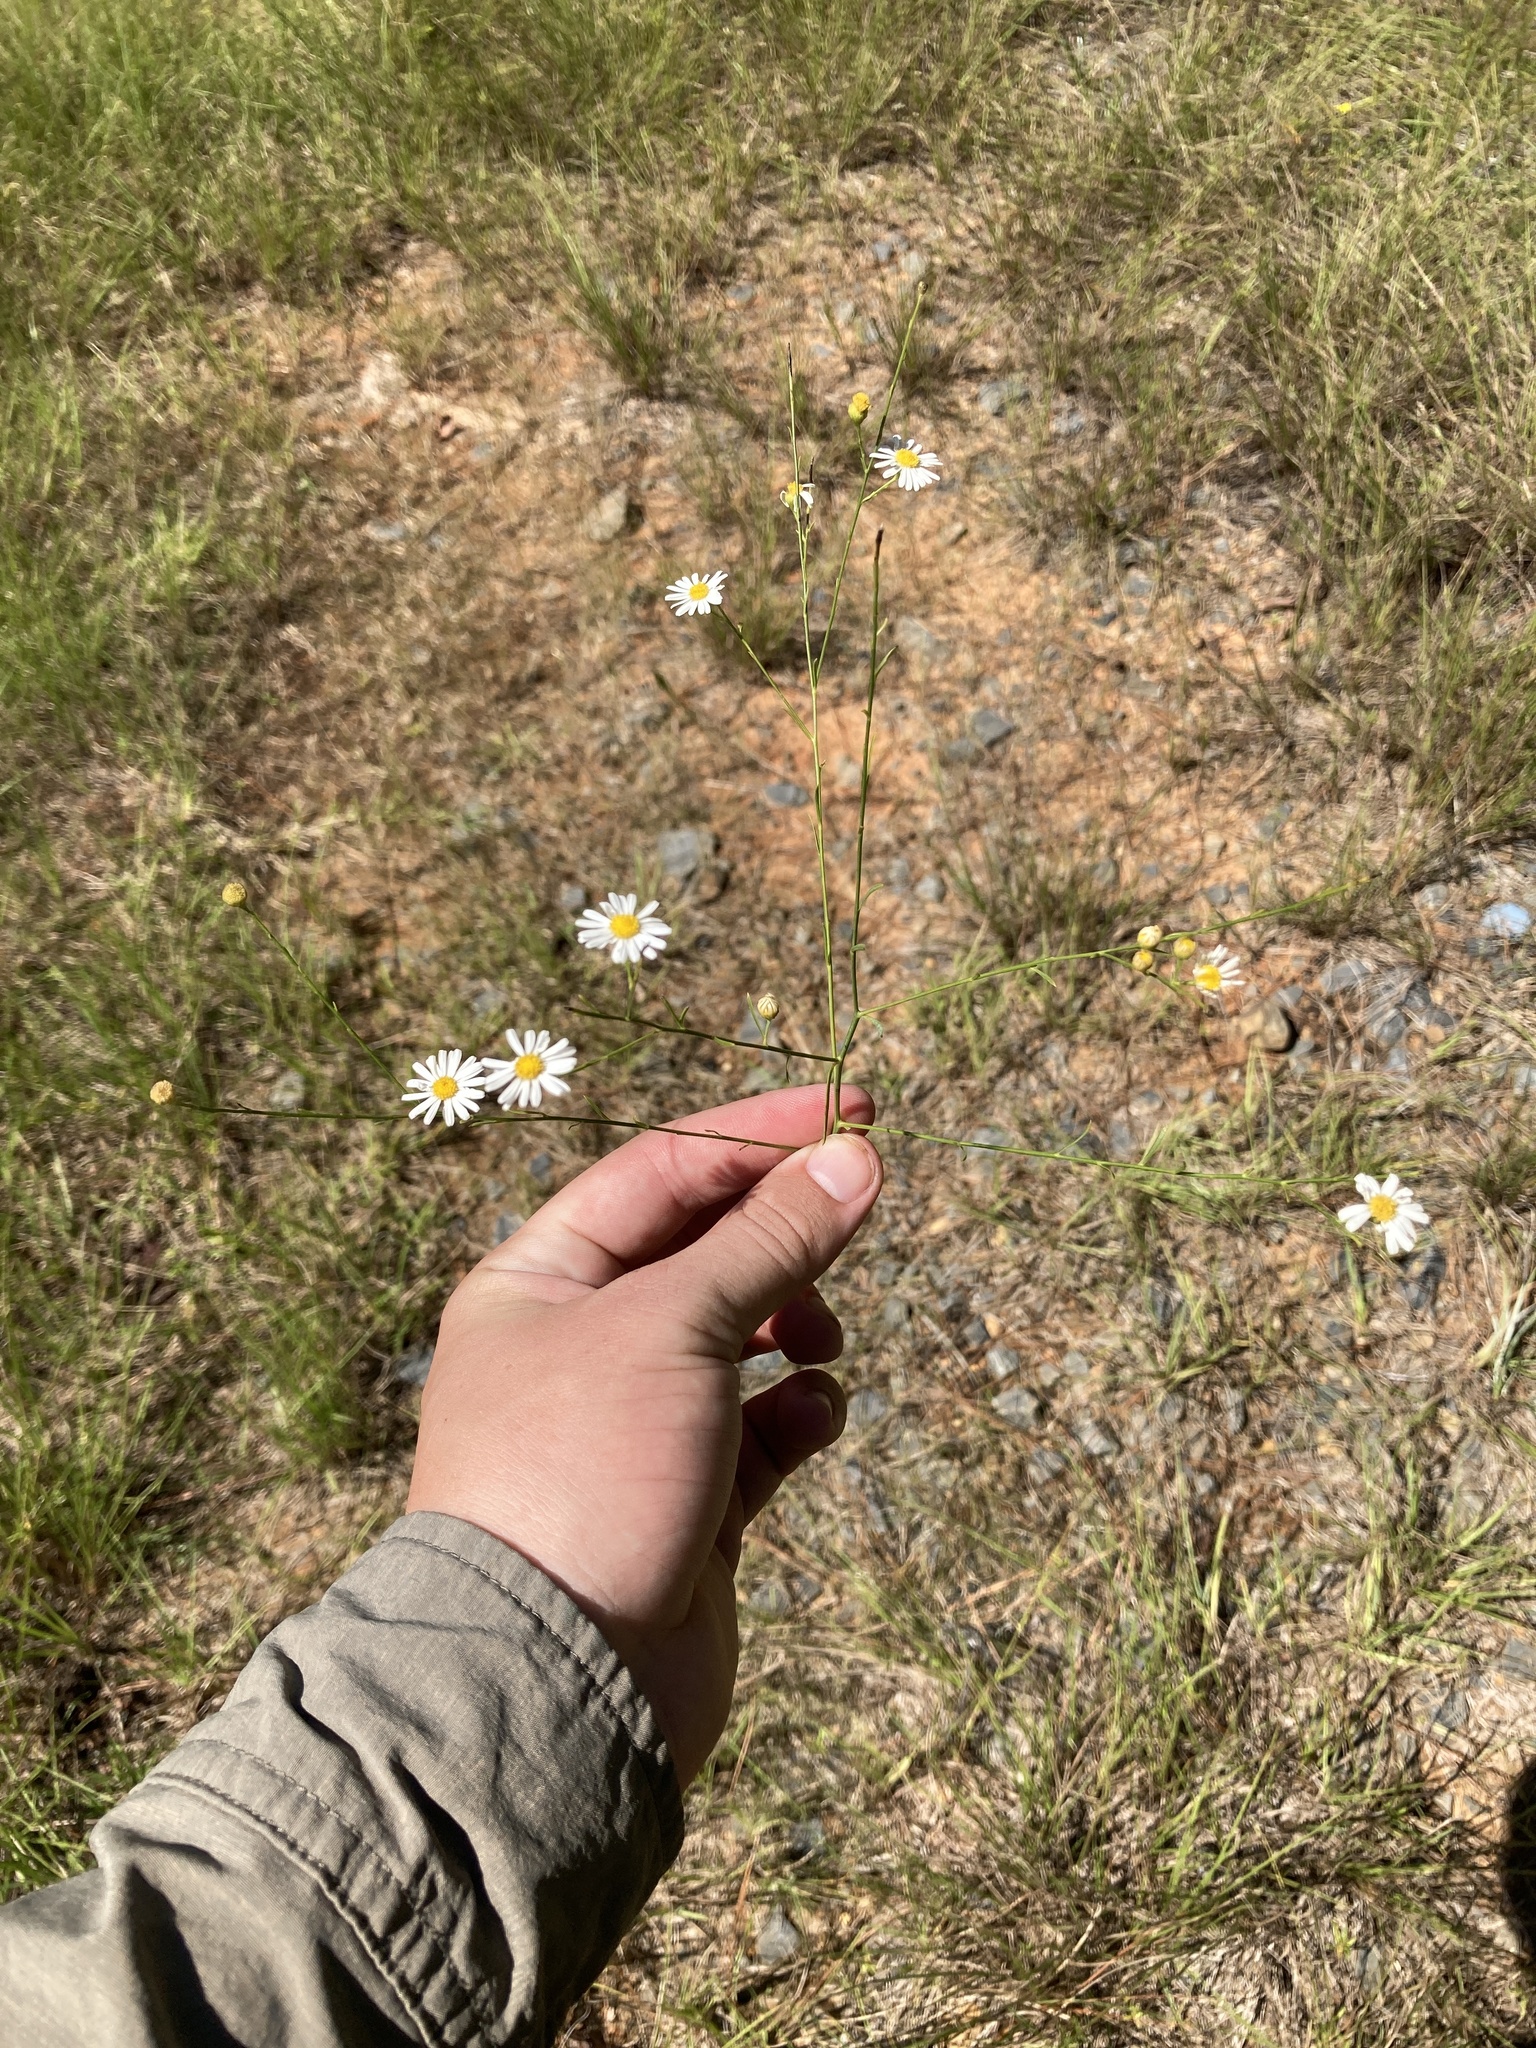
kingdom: Plantae
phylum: Tracheophyta
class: Magnoliopsida
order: Asterales
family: Asteraceae
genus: Boltonia
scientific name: Boltonia diffusa
